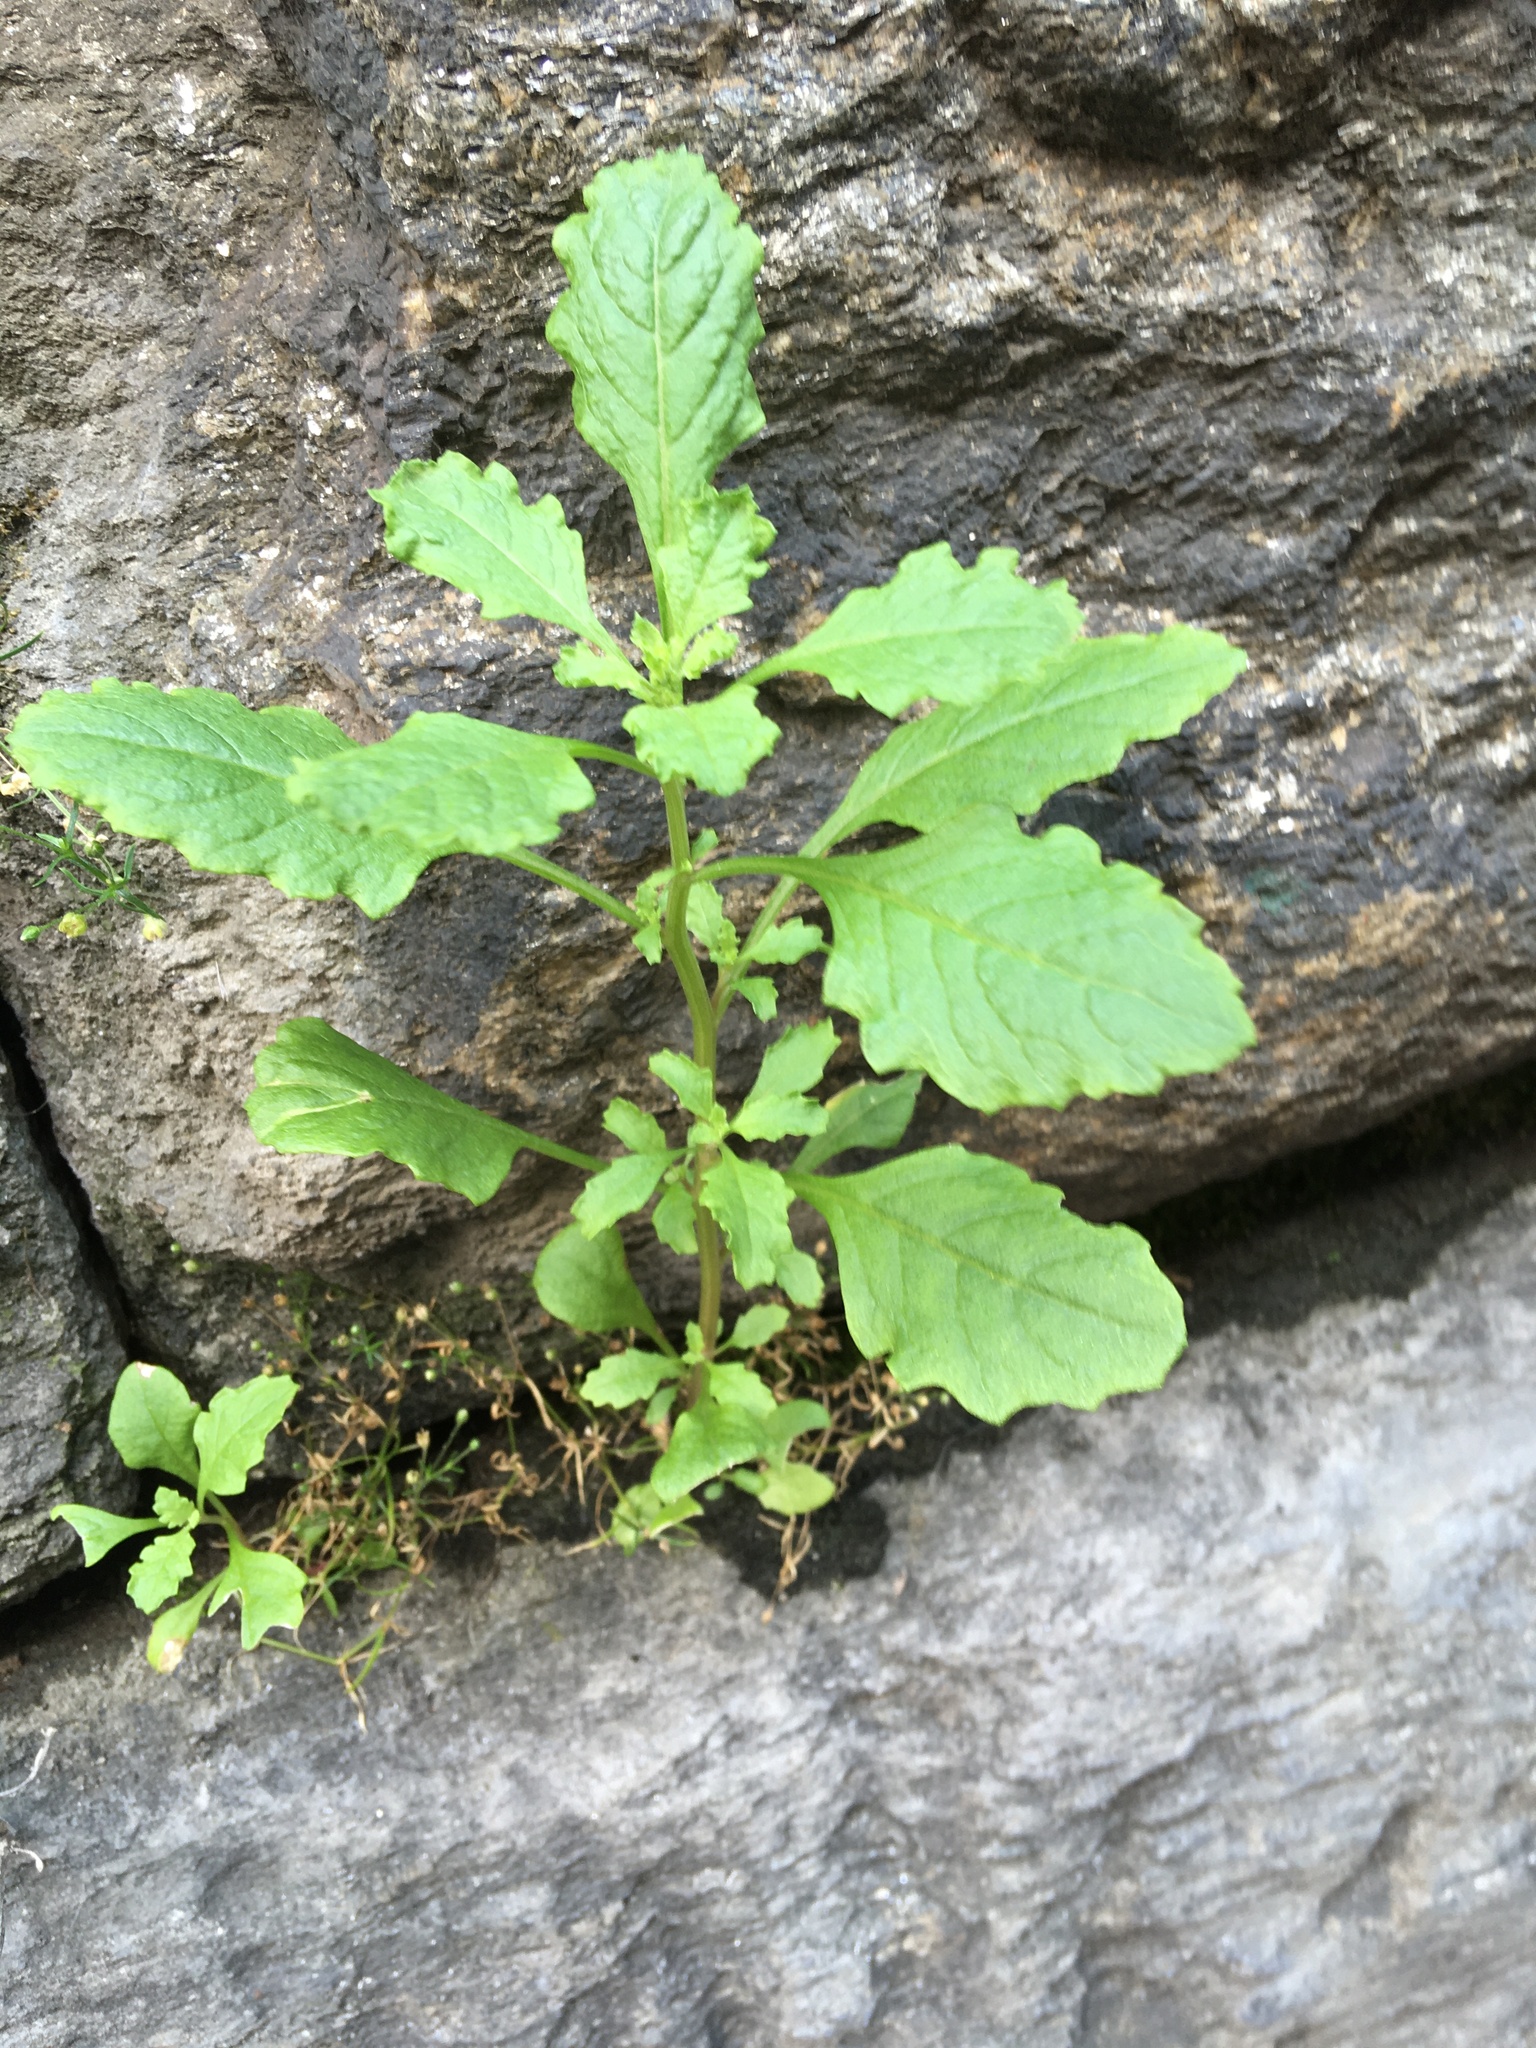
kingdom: Plantae
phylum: Tracheophyta
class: Magnoliopsida
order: Caryophyllales
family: Amaranthaceae
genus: Dysphania
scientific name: Dysphania ambrosioides
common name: Wormseed
